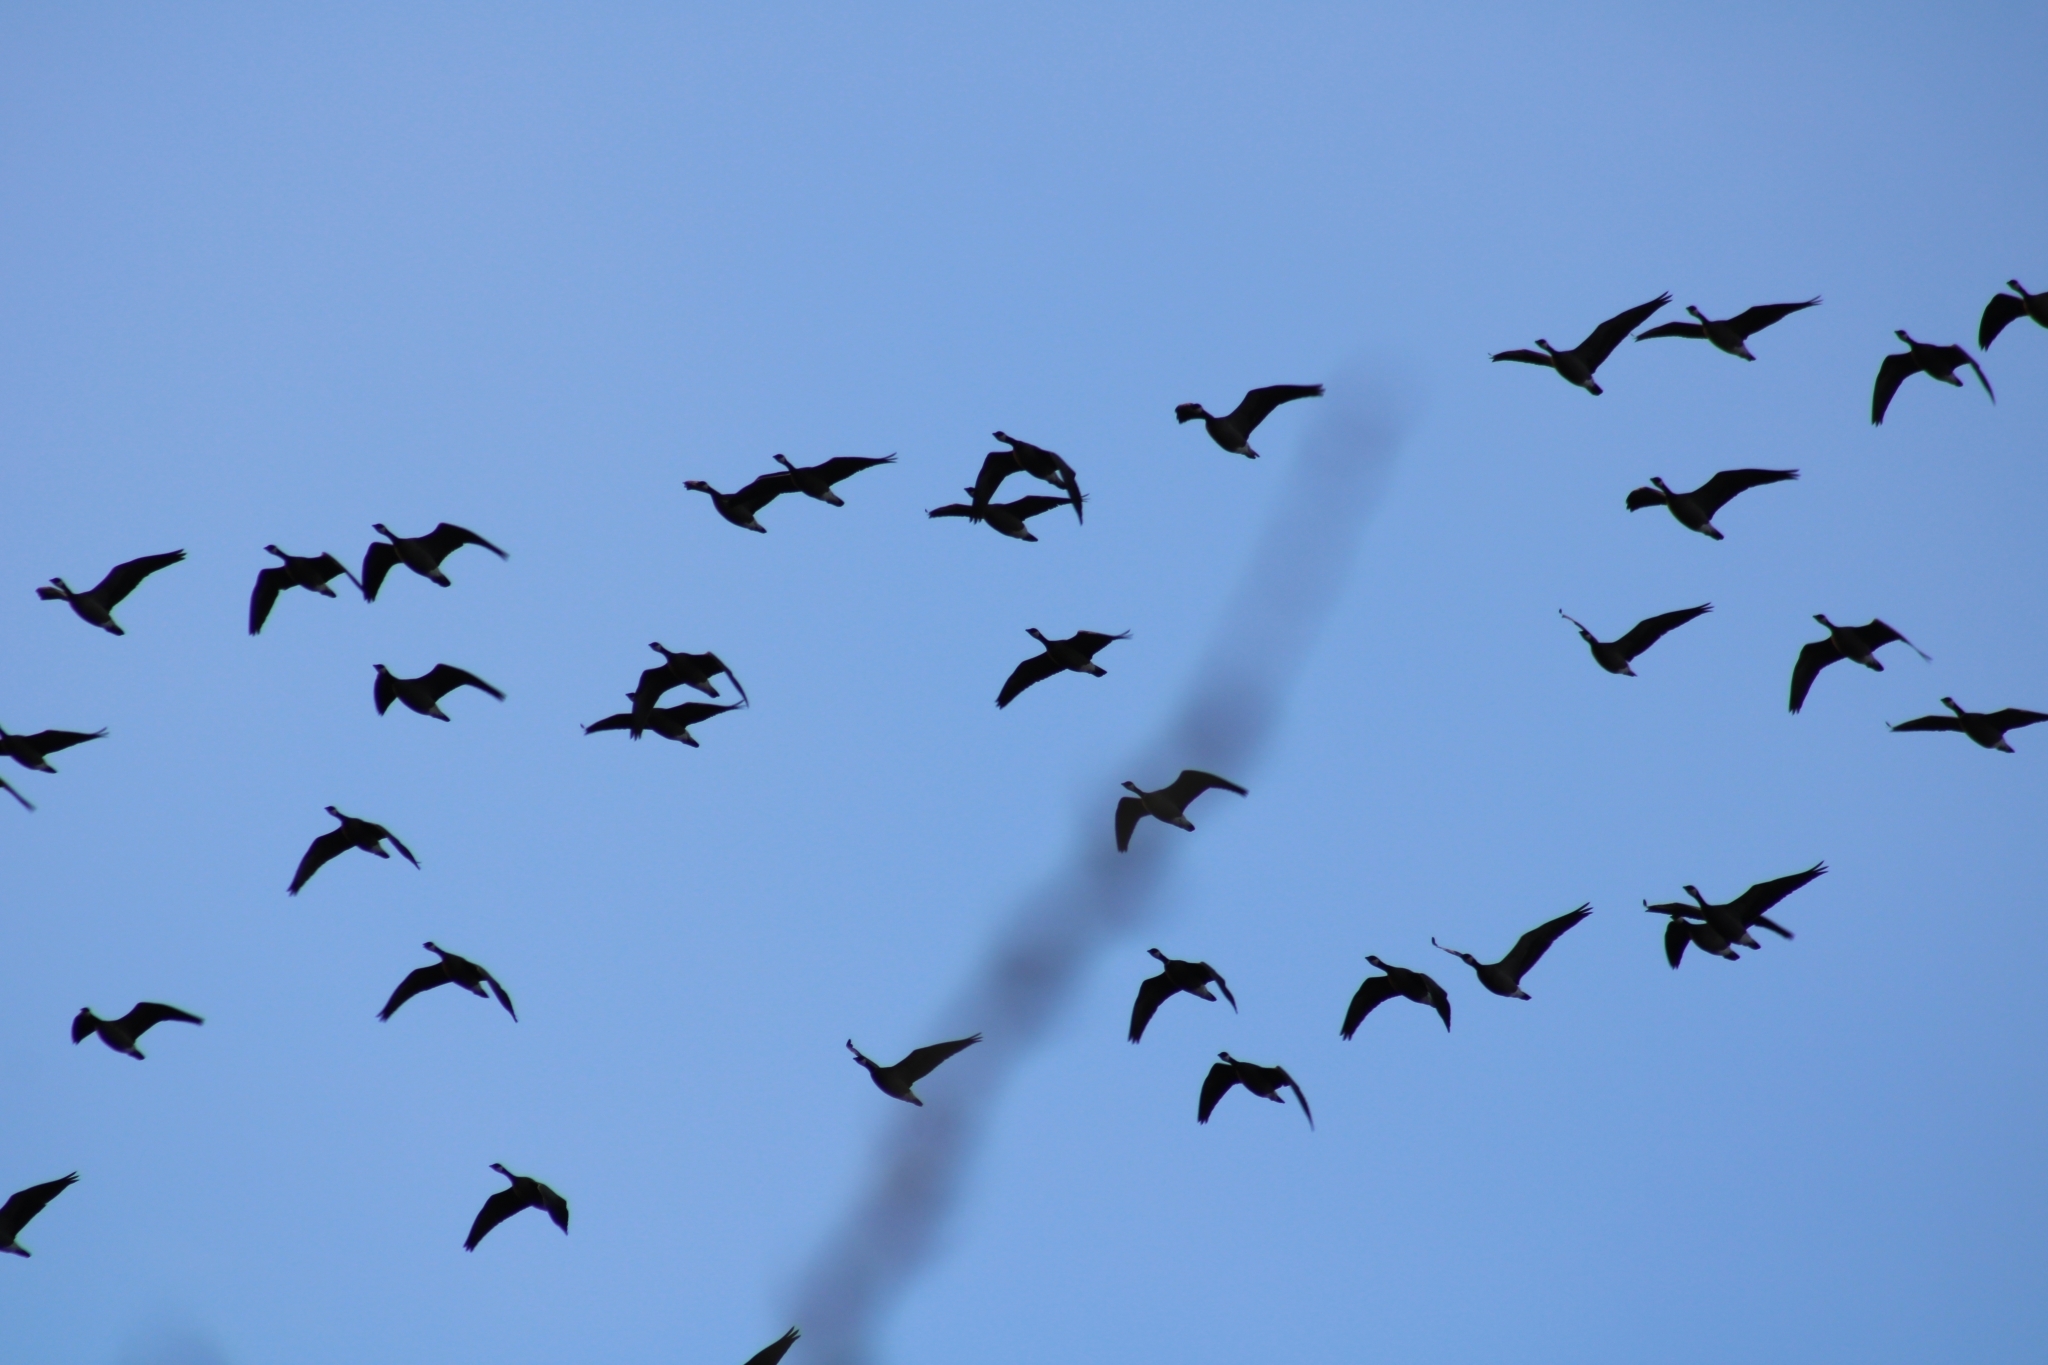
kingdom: Animalia
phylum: Chordata
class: Aves
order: Anseriformes
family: Anatidae
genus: Branta
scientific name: Branta hutchinsii
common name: Cackling goose
